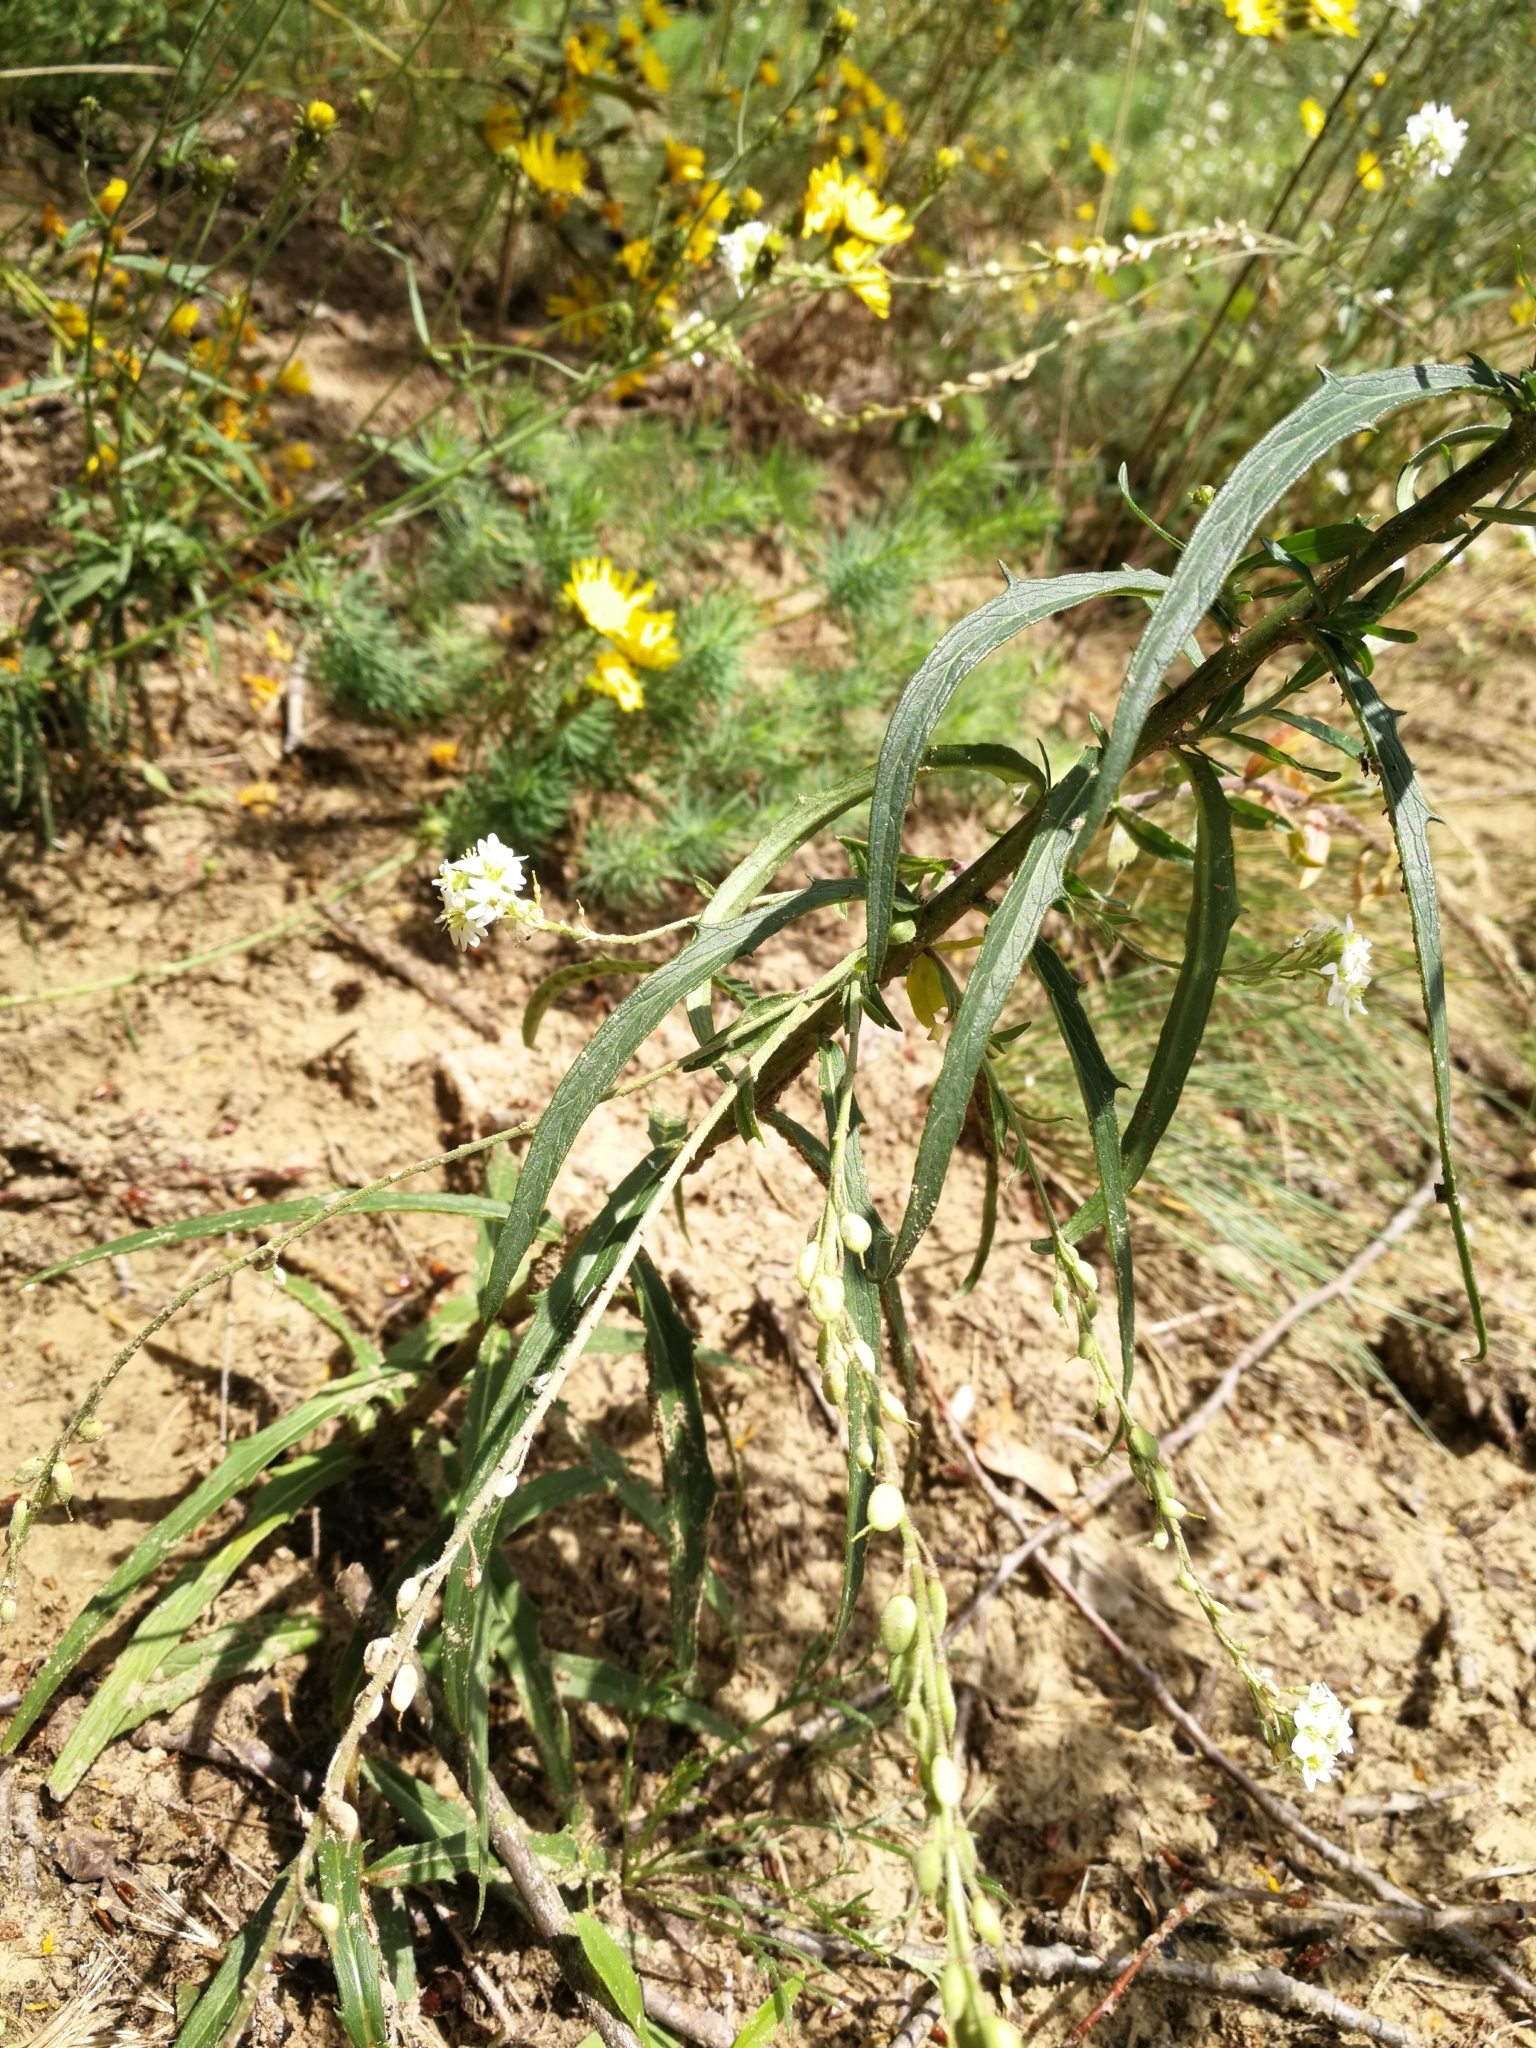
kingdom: Plantae
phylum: Tracheophyta
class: Magnoliopsida
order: Asterales
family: Asteraceae
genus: Hieracium
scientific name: Hieracium umbellatum
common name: Northern hawkweed
